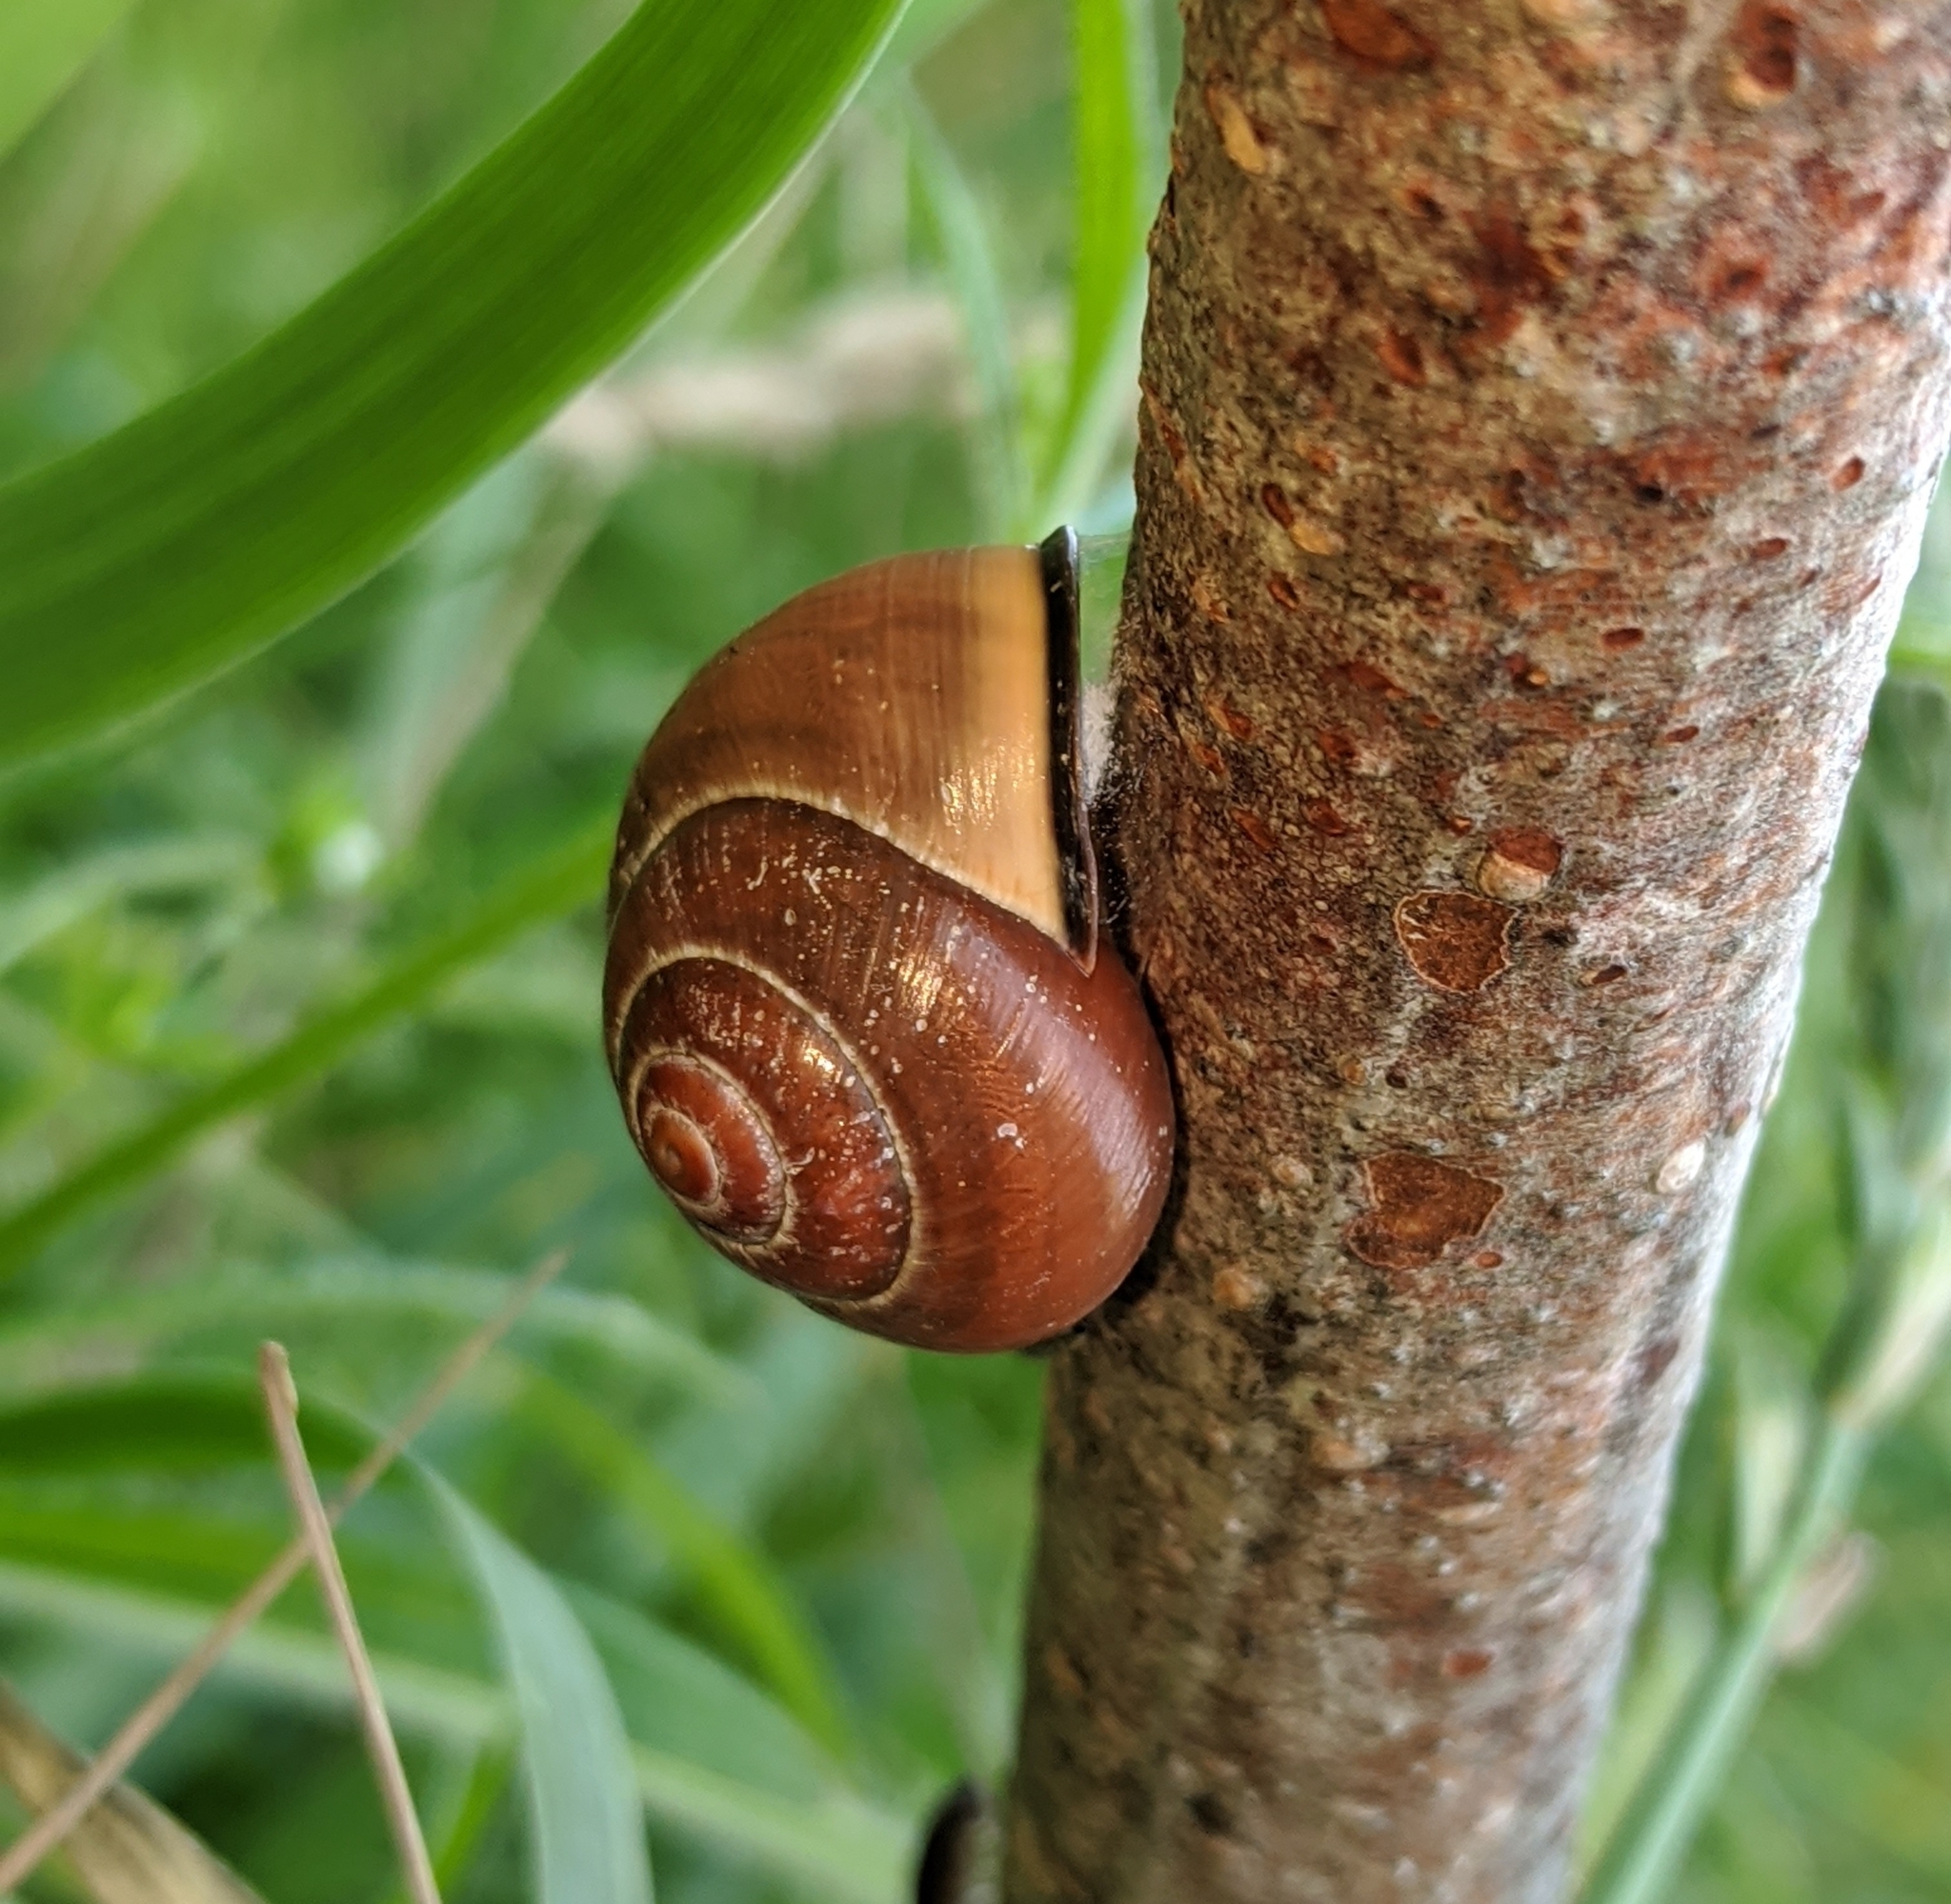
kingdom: Animalia
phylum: Mollusca
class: Gastropoda
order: Stylommatophora
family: Helicidae
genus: Cepaea
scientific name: Cepaea nemoralis
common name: Grovesnail
